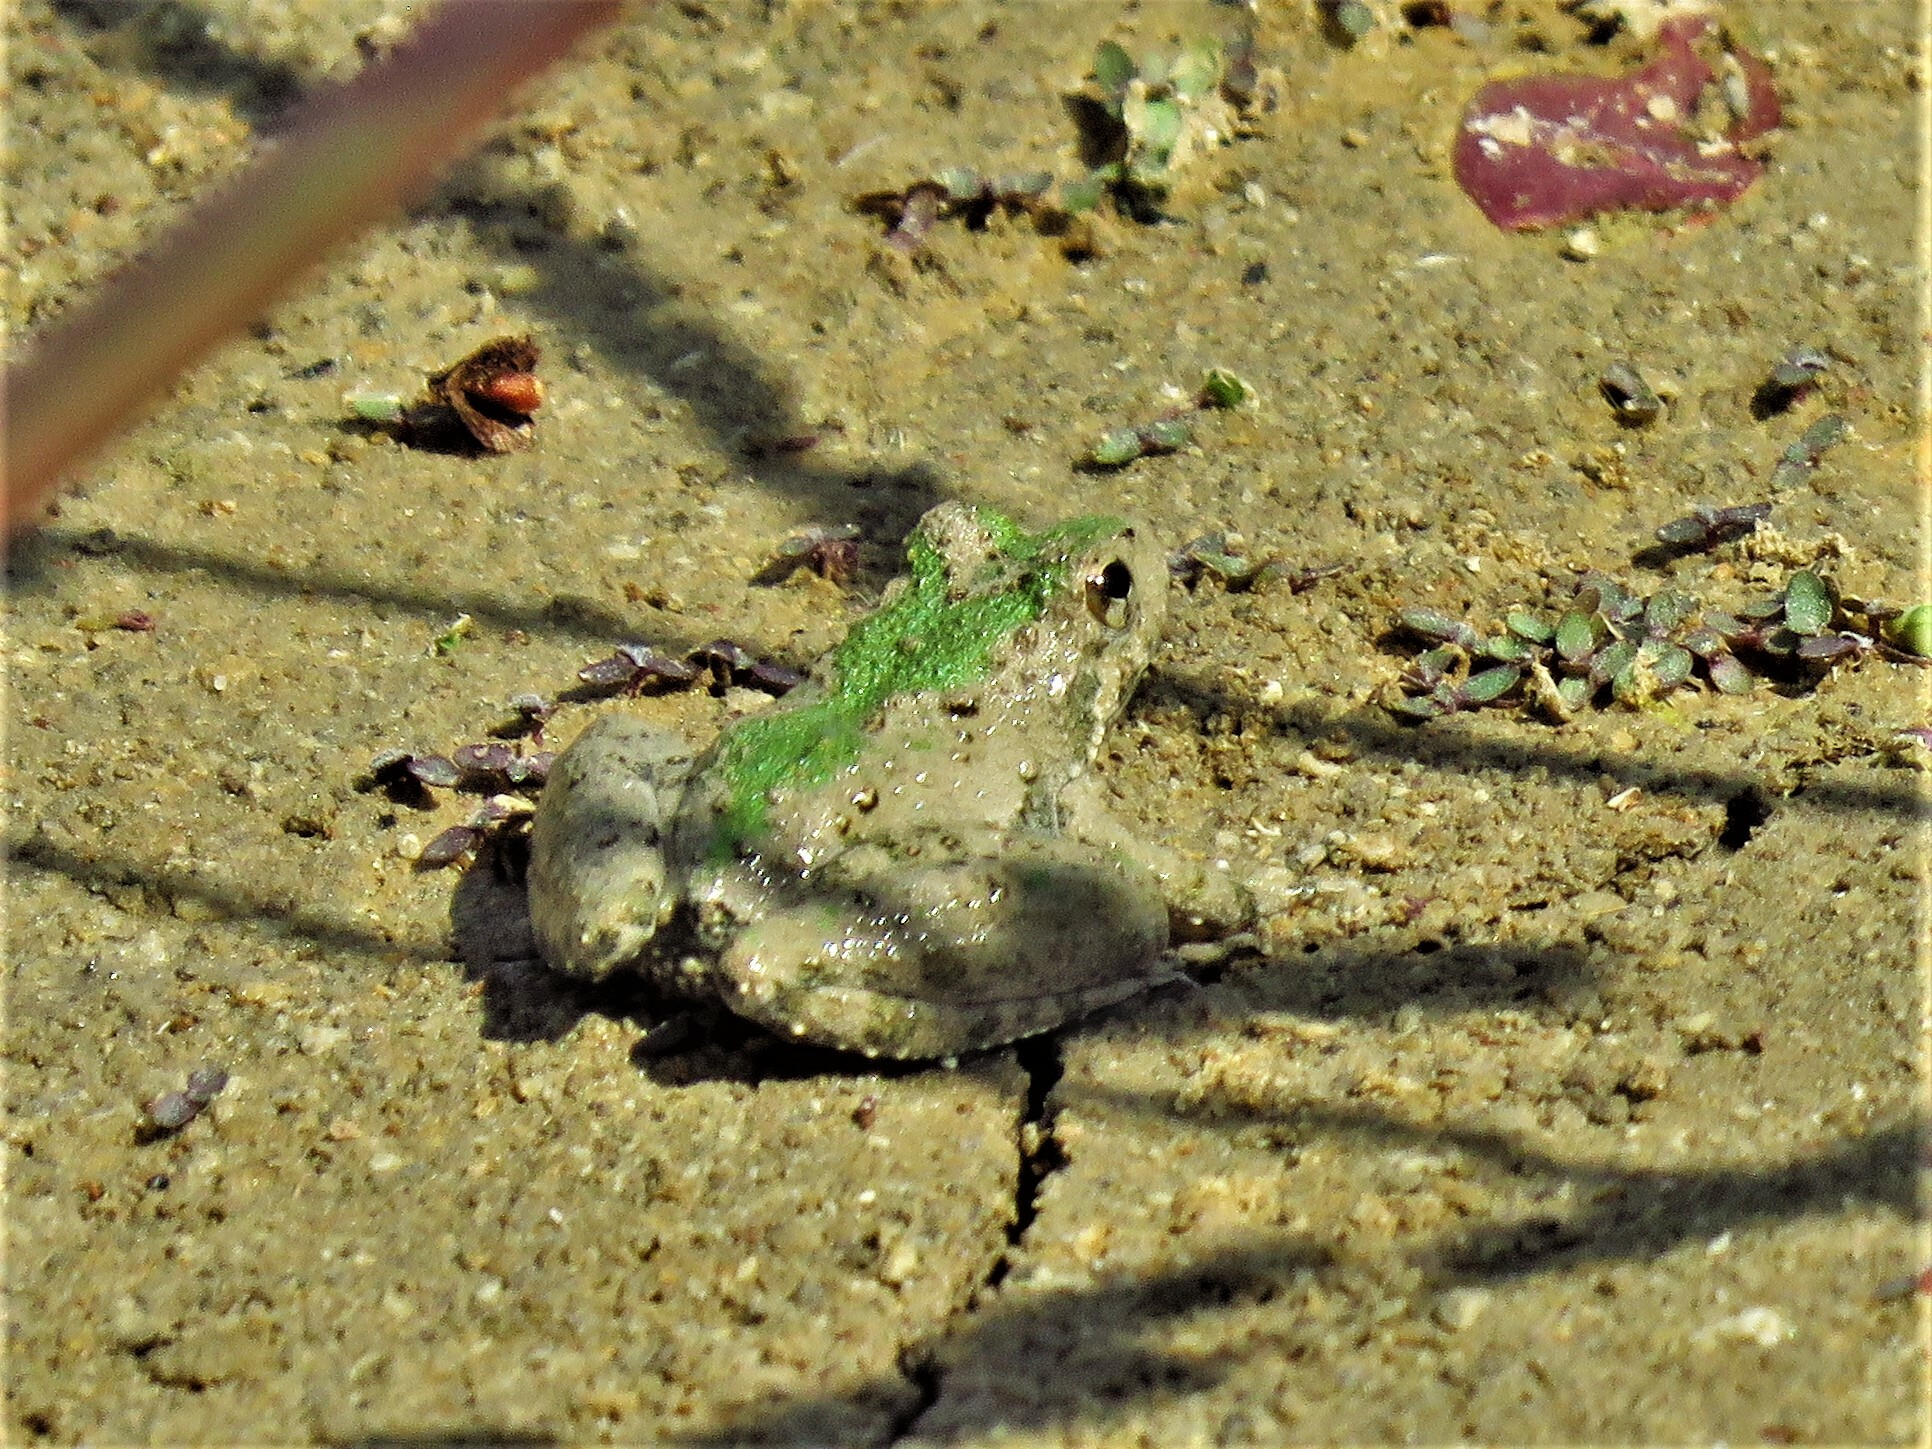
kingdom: Animalia
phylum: Chordata
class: Amphibia
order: Anura
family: Hylidae
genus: Acris
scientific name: Acris blanchardi
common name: Blanchard's cricket frog
